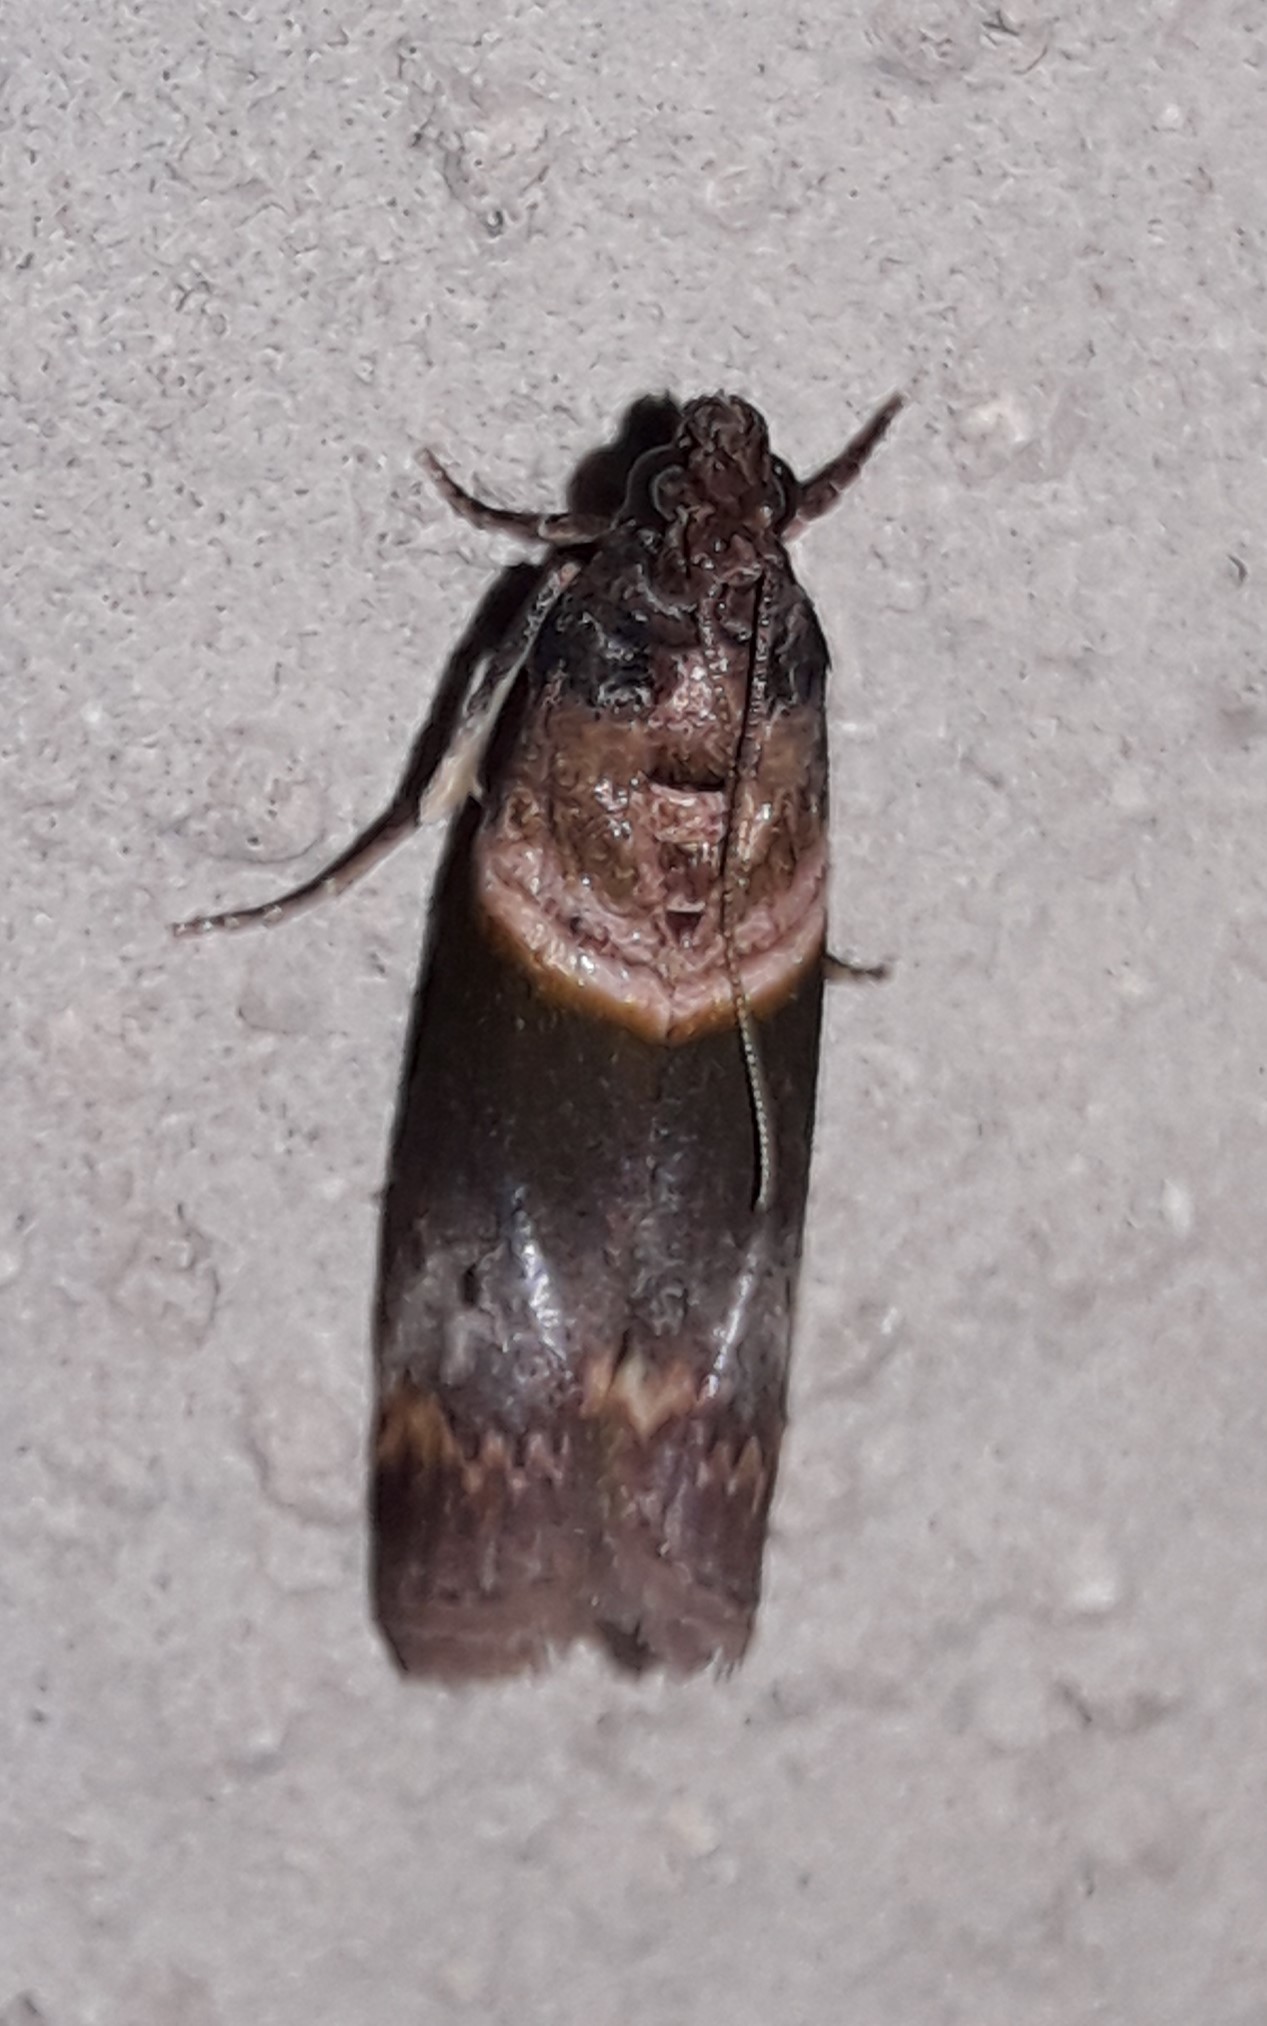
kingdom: Animalia
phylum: Arthropoda
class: Insecta
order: Lepidoptera
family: Pyralidae
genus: Davara
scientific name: Davara caricae
